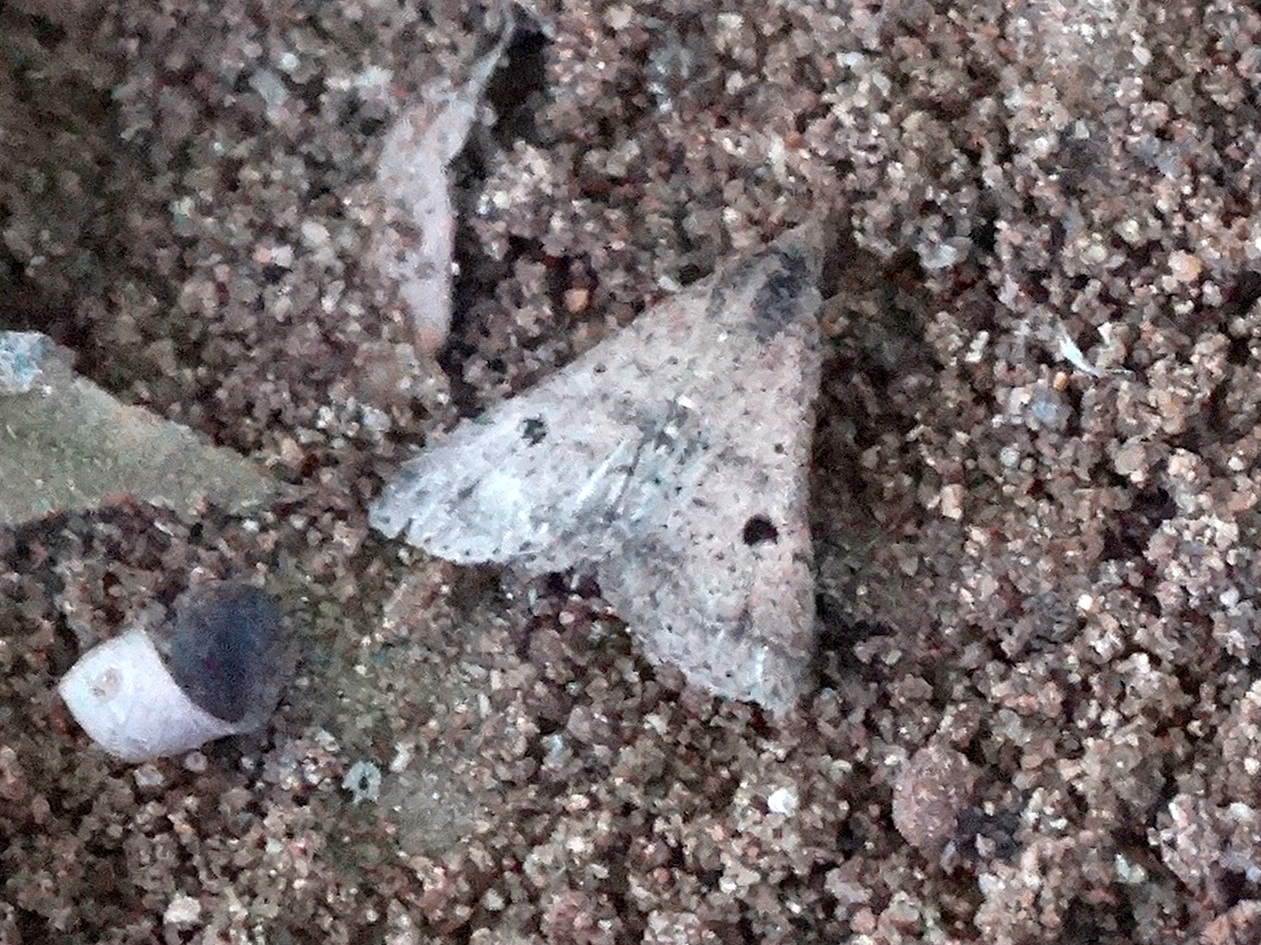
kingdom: Animalia
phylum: Arthropoda
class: Insecta
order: Lepidoptera
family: Erebidae
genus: Bleptina
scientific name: Bleptina caradrinalis
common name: Bent-winged owlet
